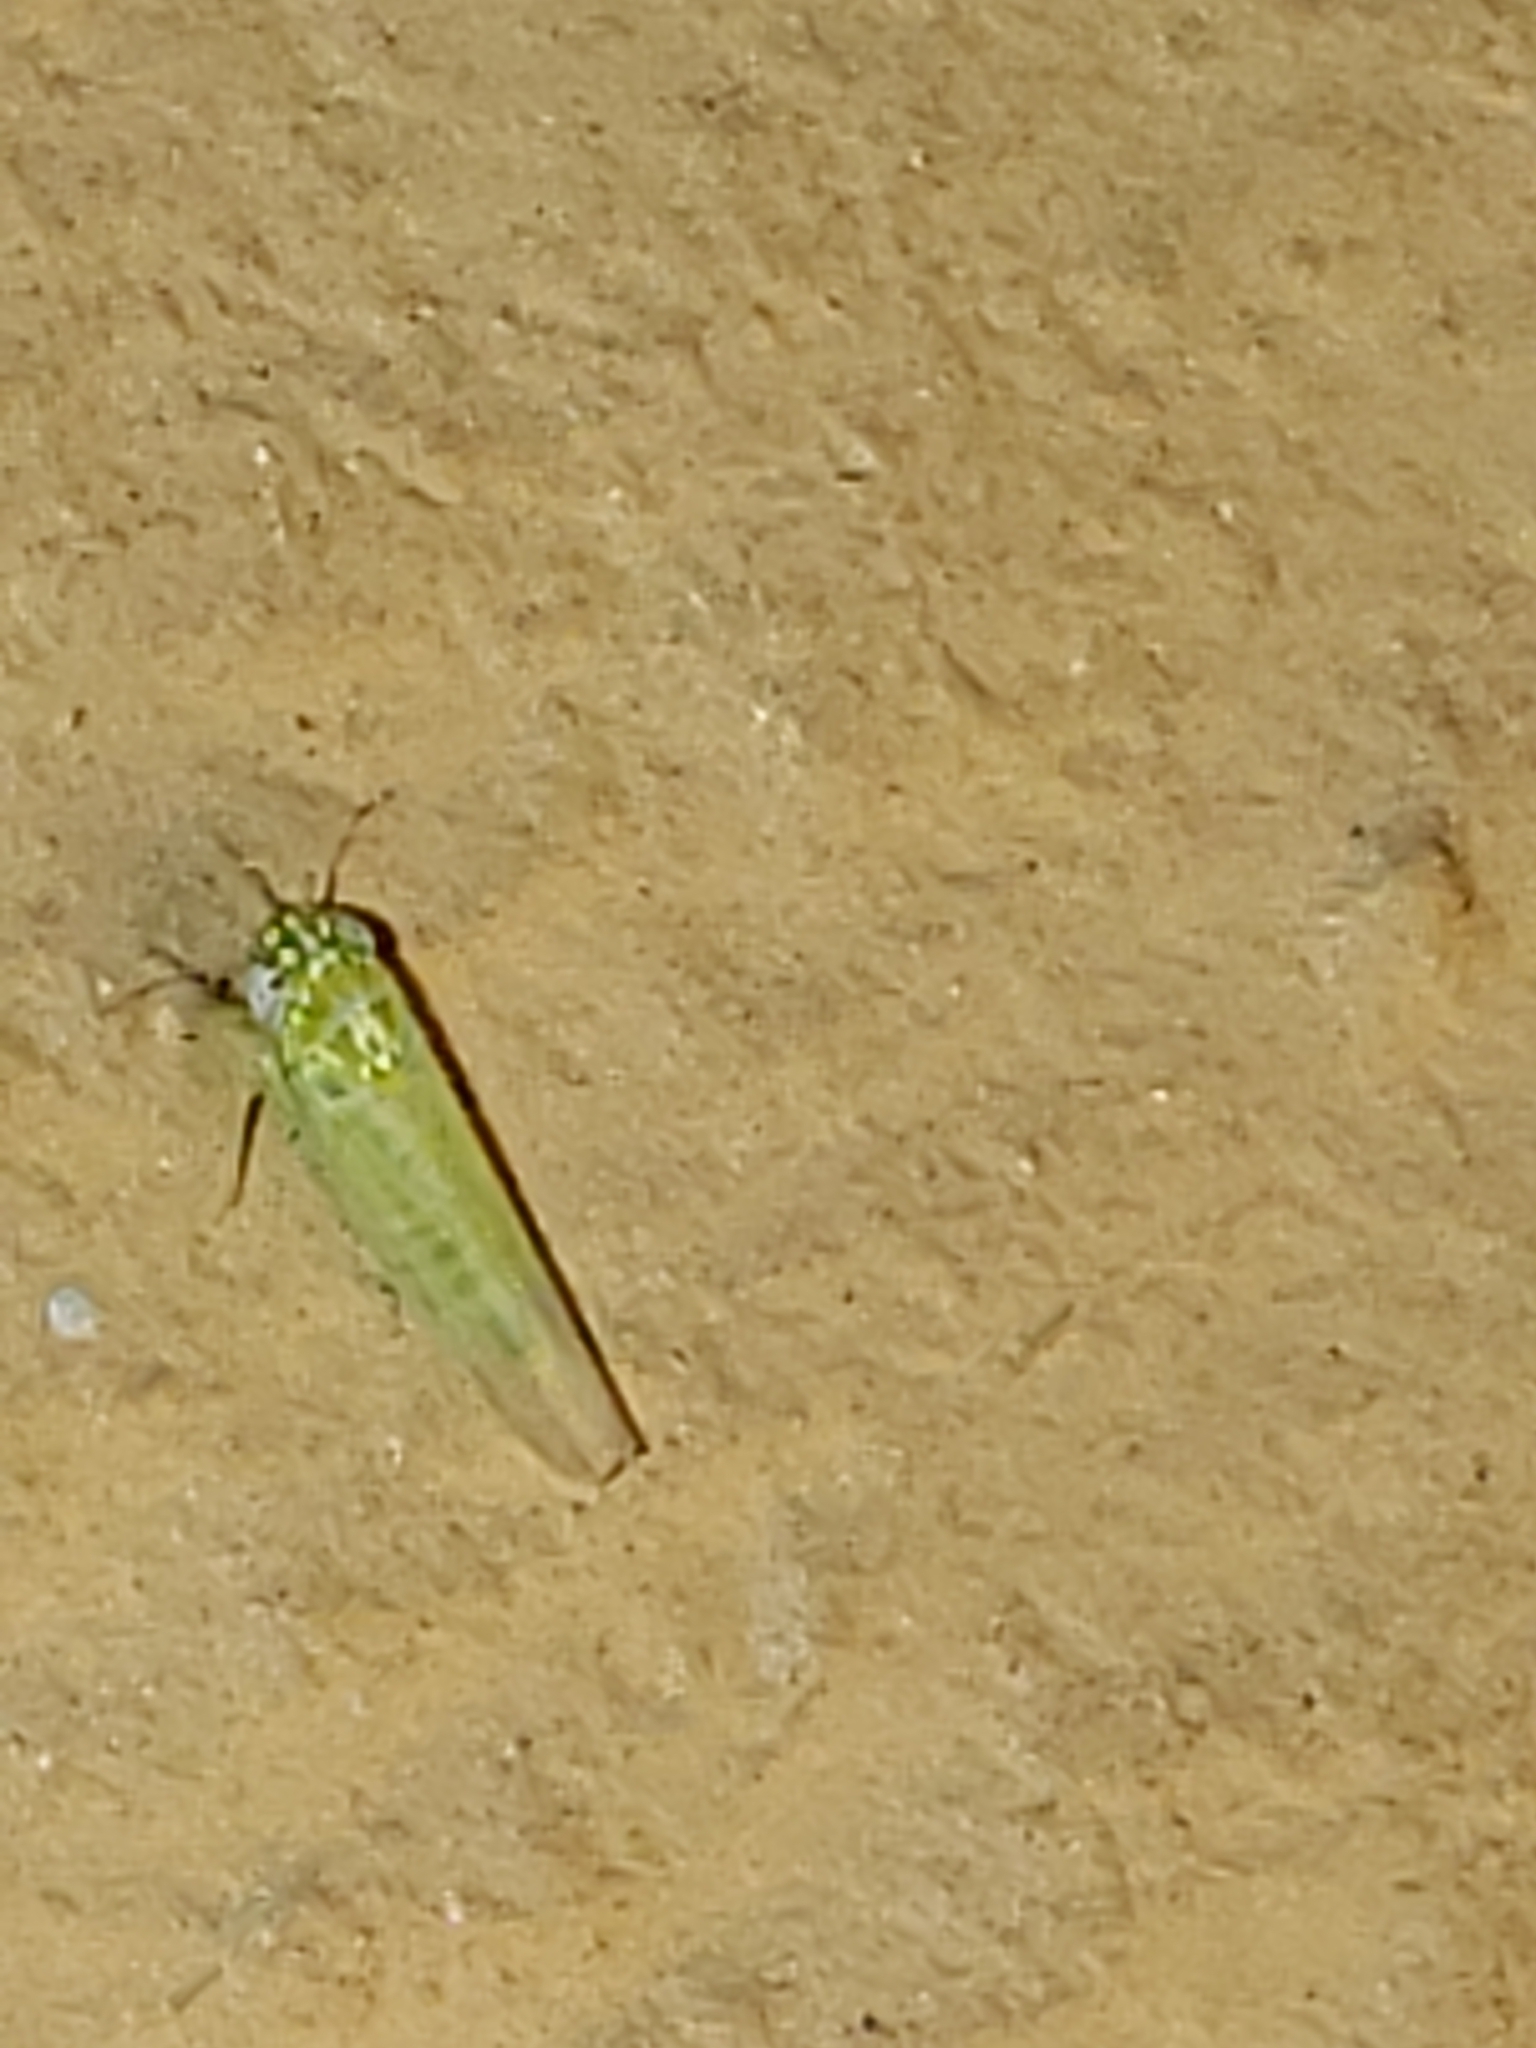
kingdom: Animalia
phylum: Arthropoda
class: Insecta
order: Hemiptera
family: Cicadellidae
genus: Empoasca
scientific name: Empoasca fabae
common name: Potato leafhopper
